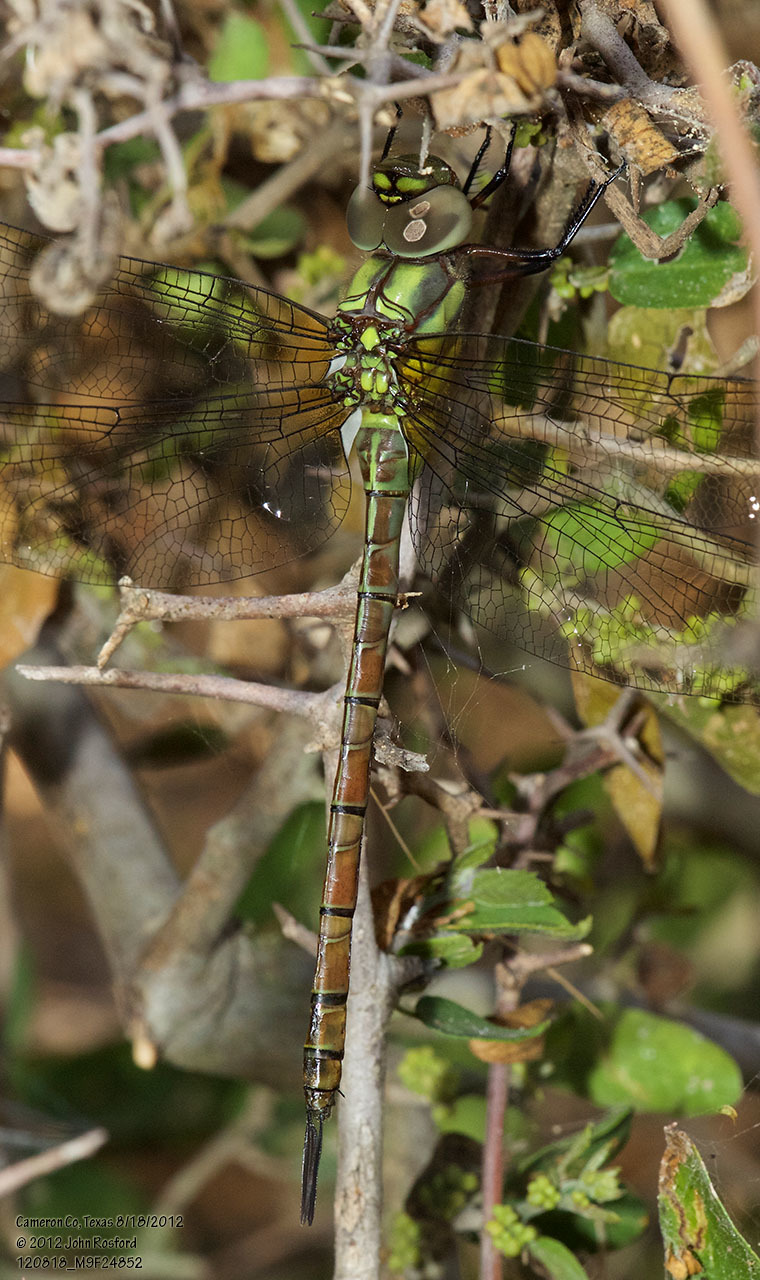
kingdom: Animalia
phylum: Arthropoda
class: Insecta
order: Odonata
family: Aeshnidae
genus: Coryphaeschna
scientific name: Coryphaeschna adnexa
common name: Blue-faced darner
